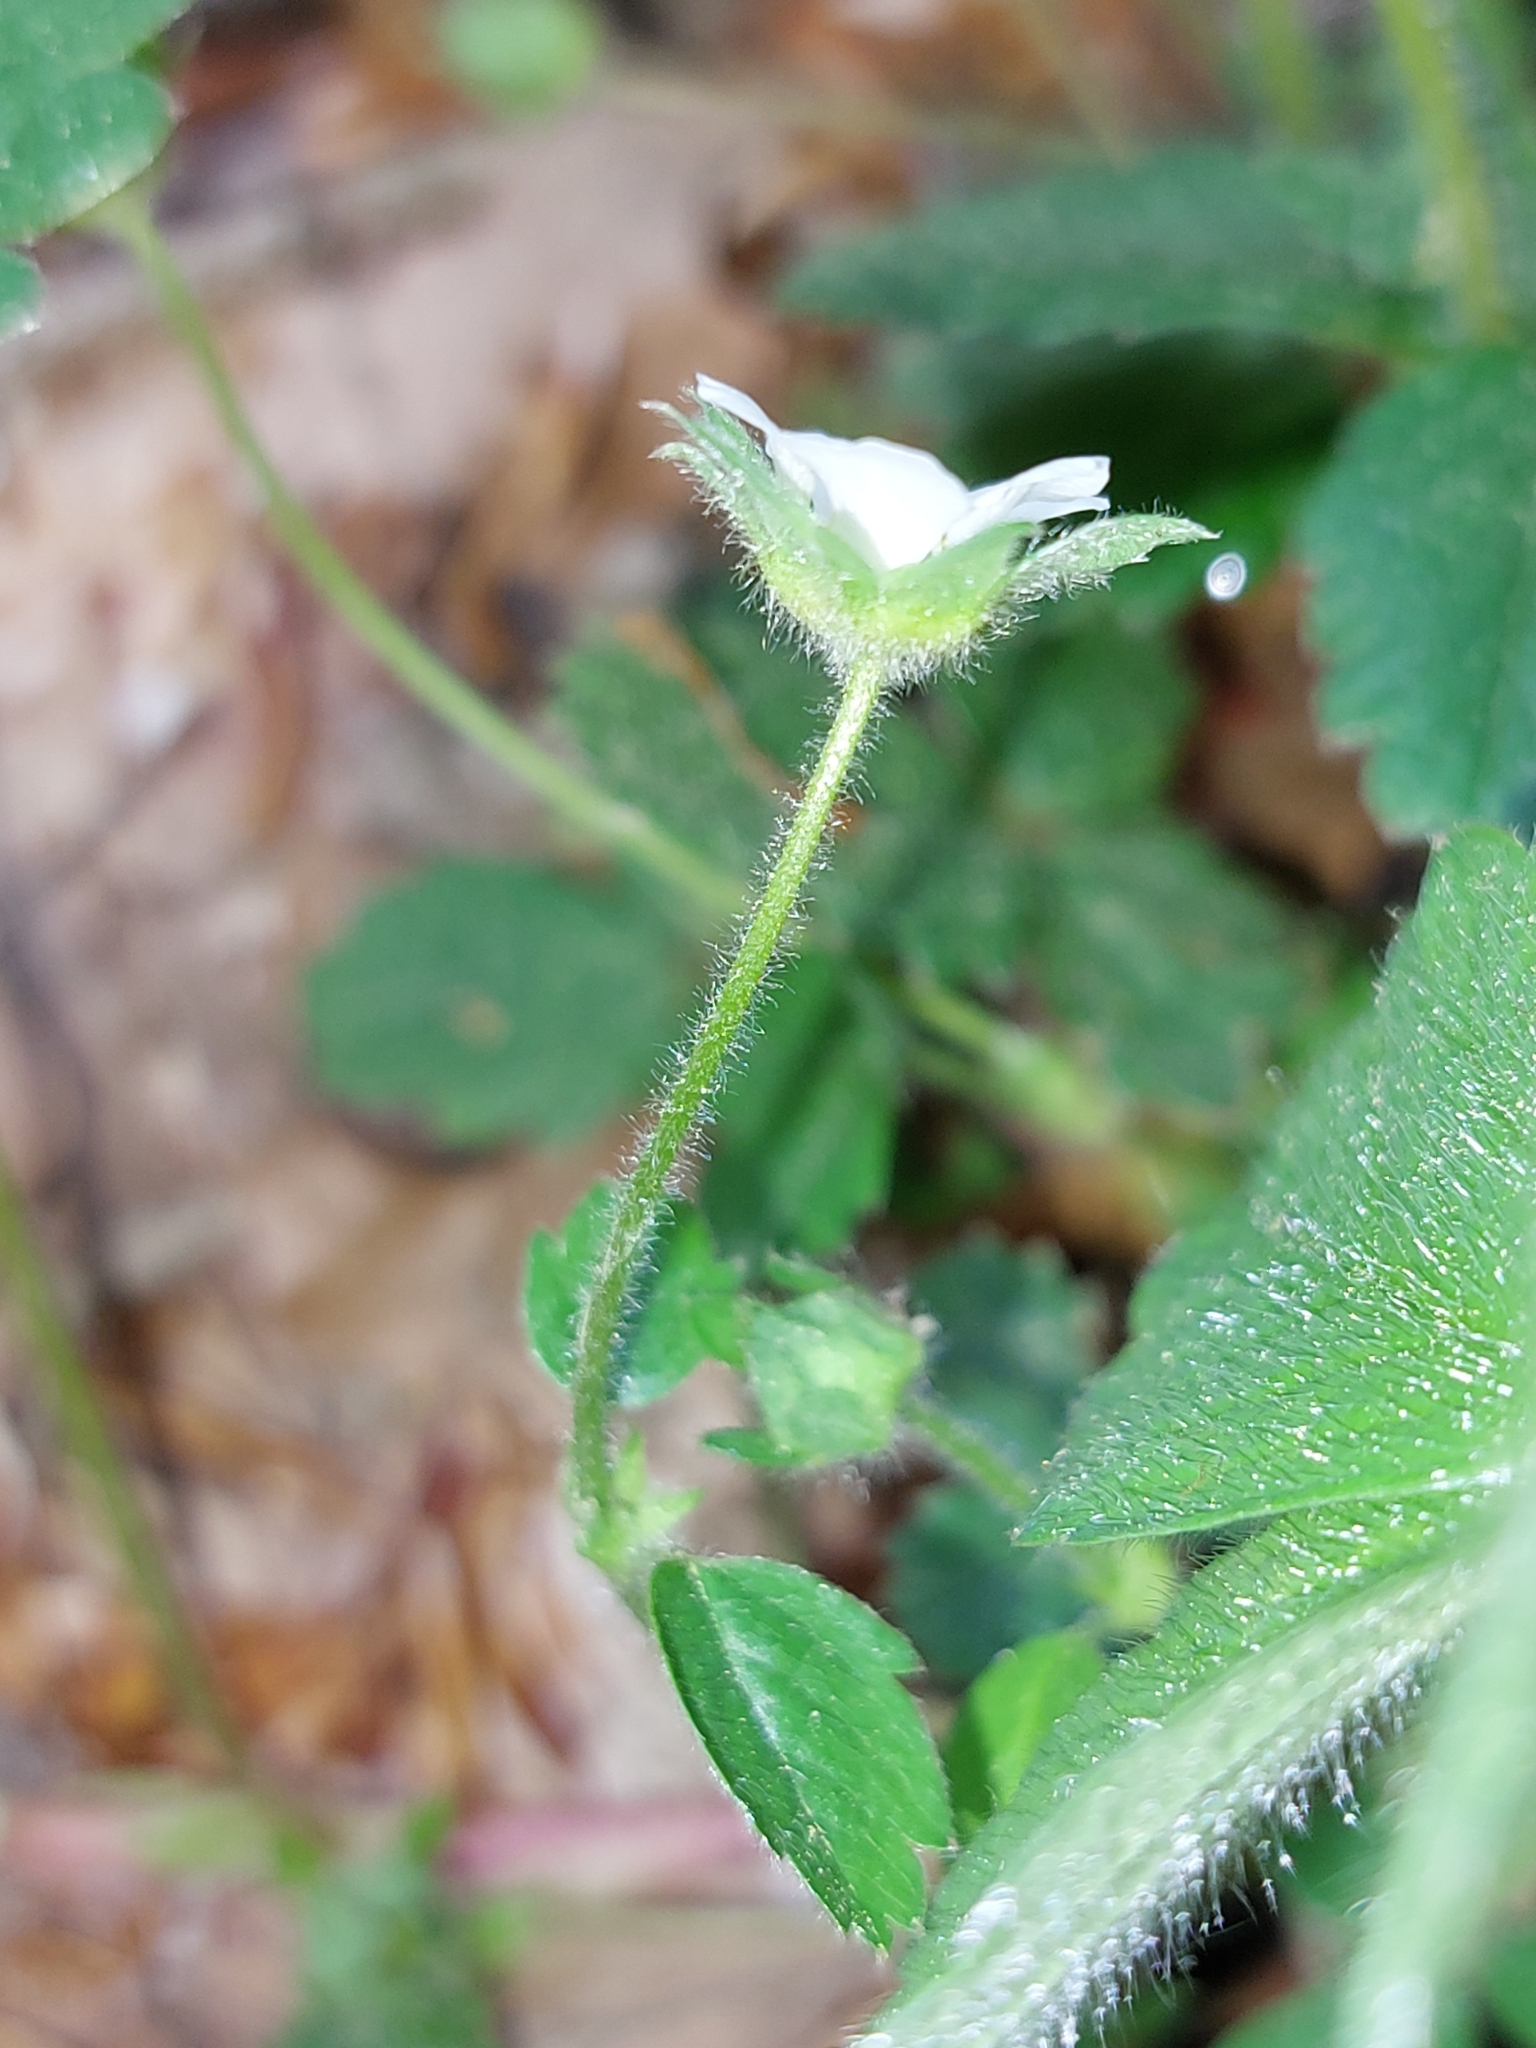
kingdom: Plantae
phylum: Tracheophyta
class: Magnoliopsida
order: Rosales
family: Rosaceae
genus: Potentilla
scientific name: Potentilla sterilis
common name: Barren strawberry
